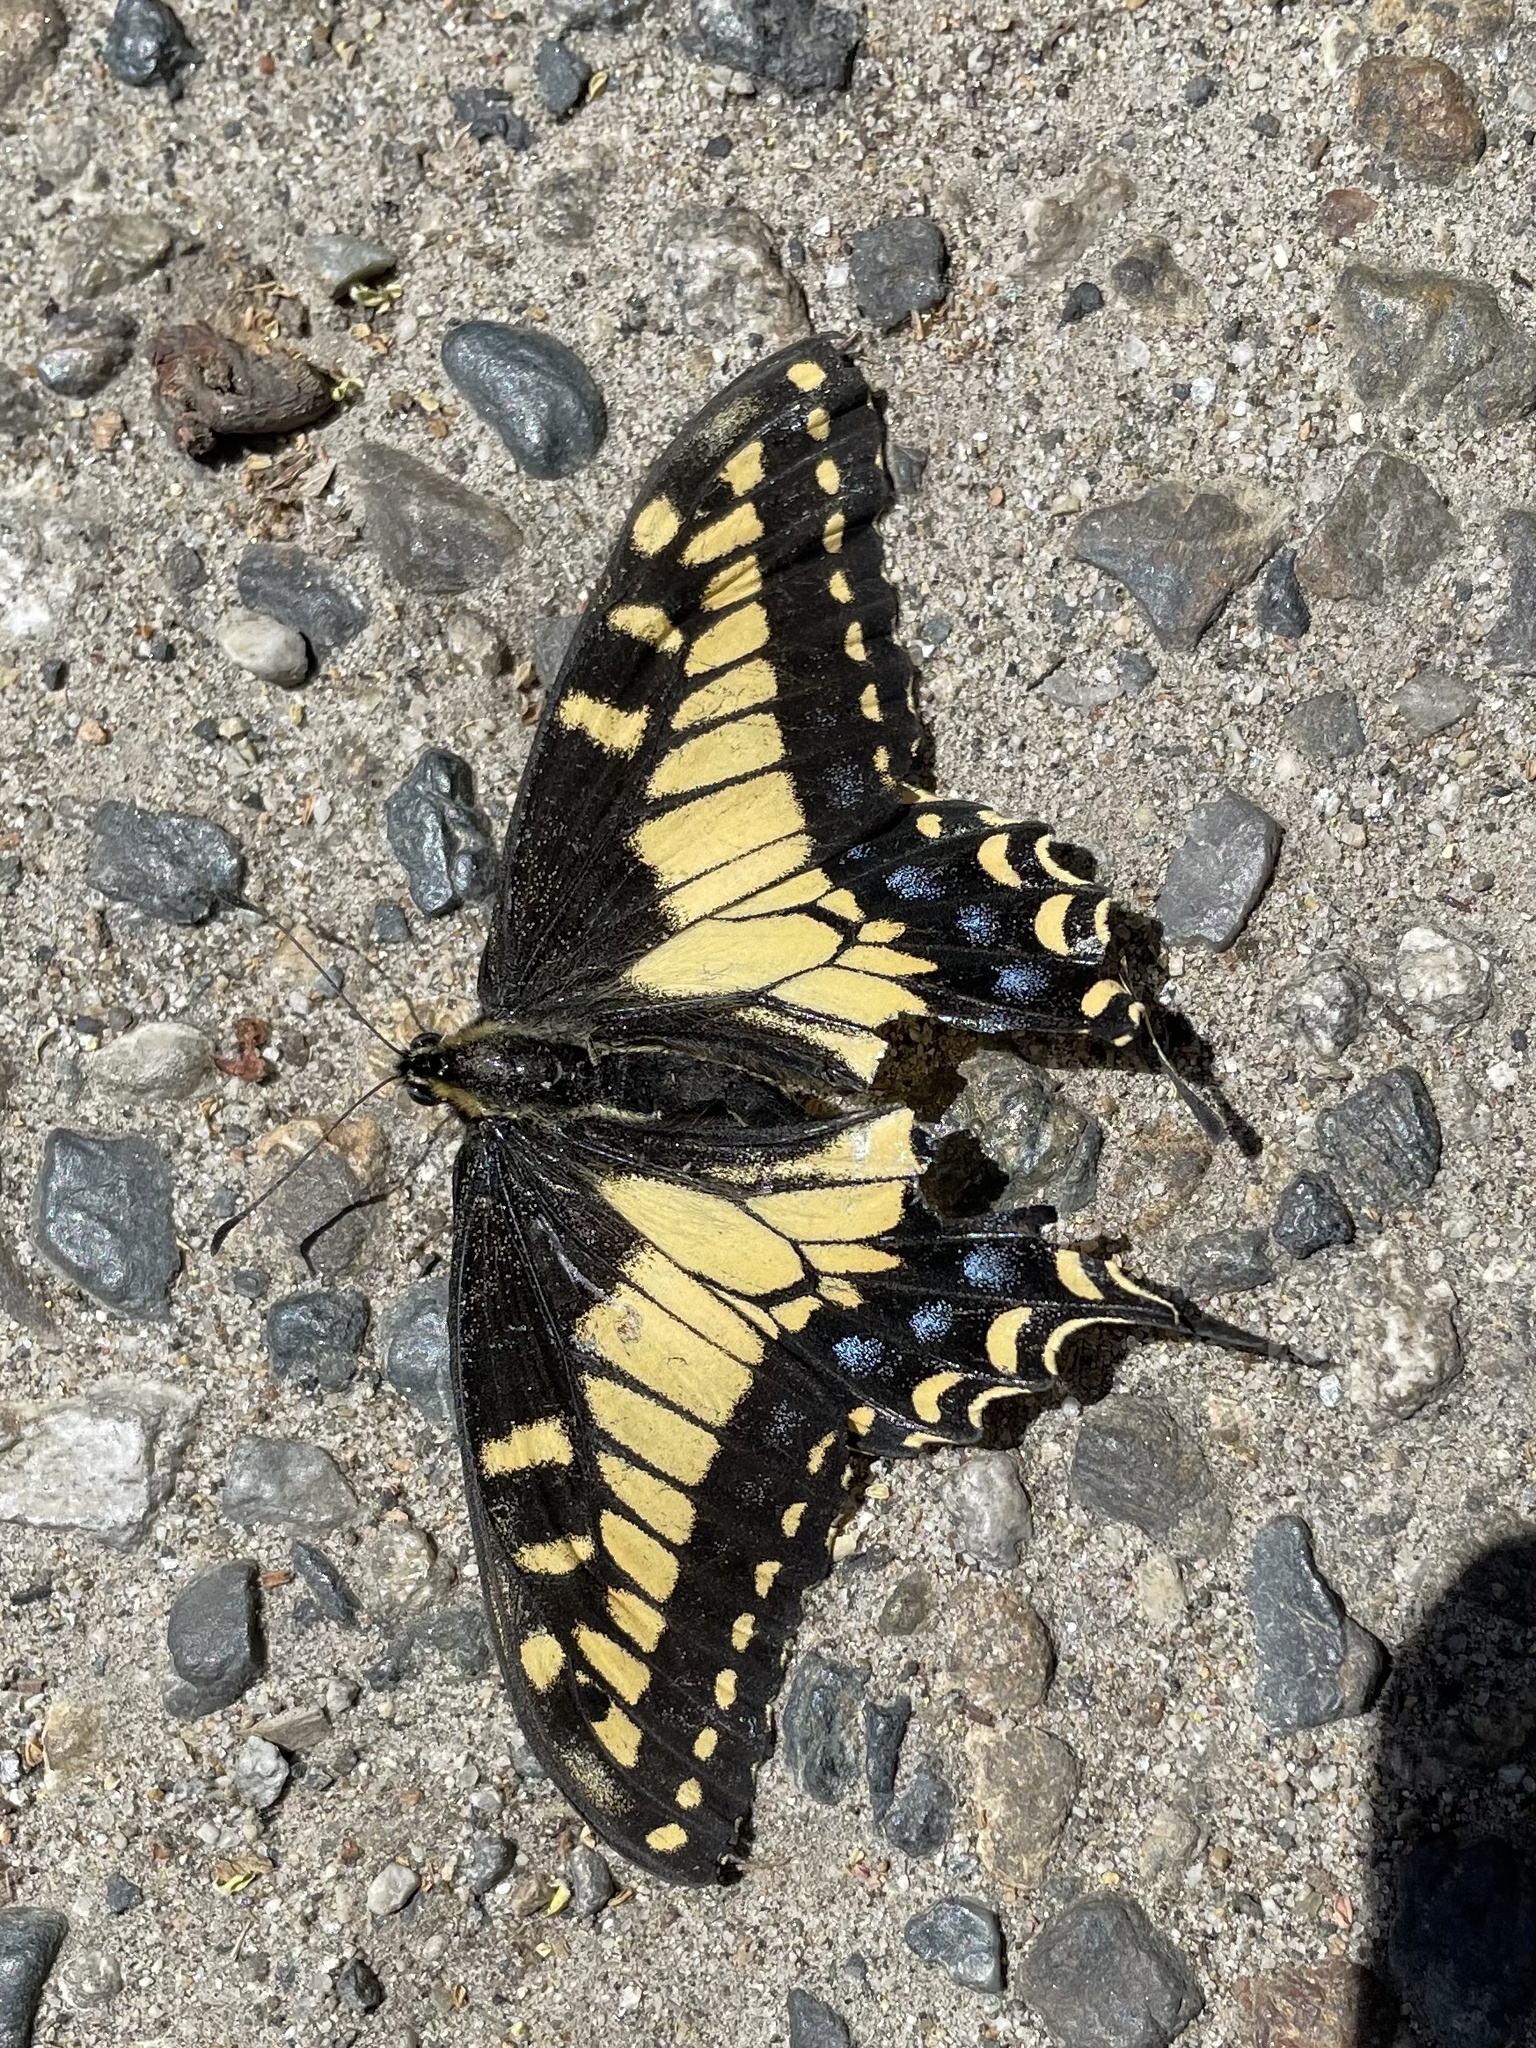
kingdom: Animalia
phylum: Arthropoda
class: Insecta
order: Lepidoptera
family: Papilionidae
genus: Papilio
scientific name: Papilio zelicaon
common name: Anise swallowtail
